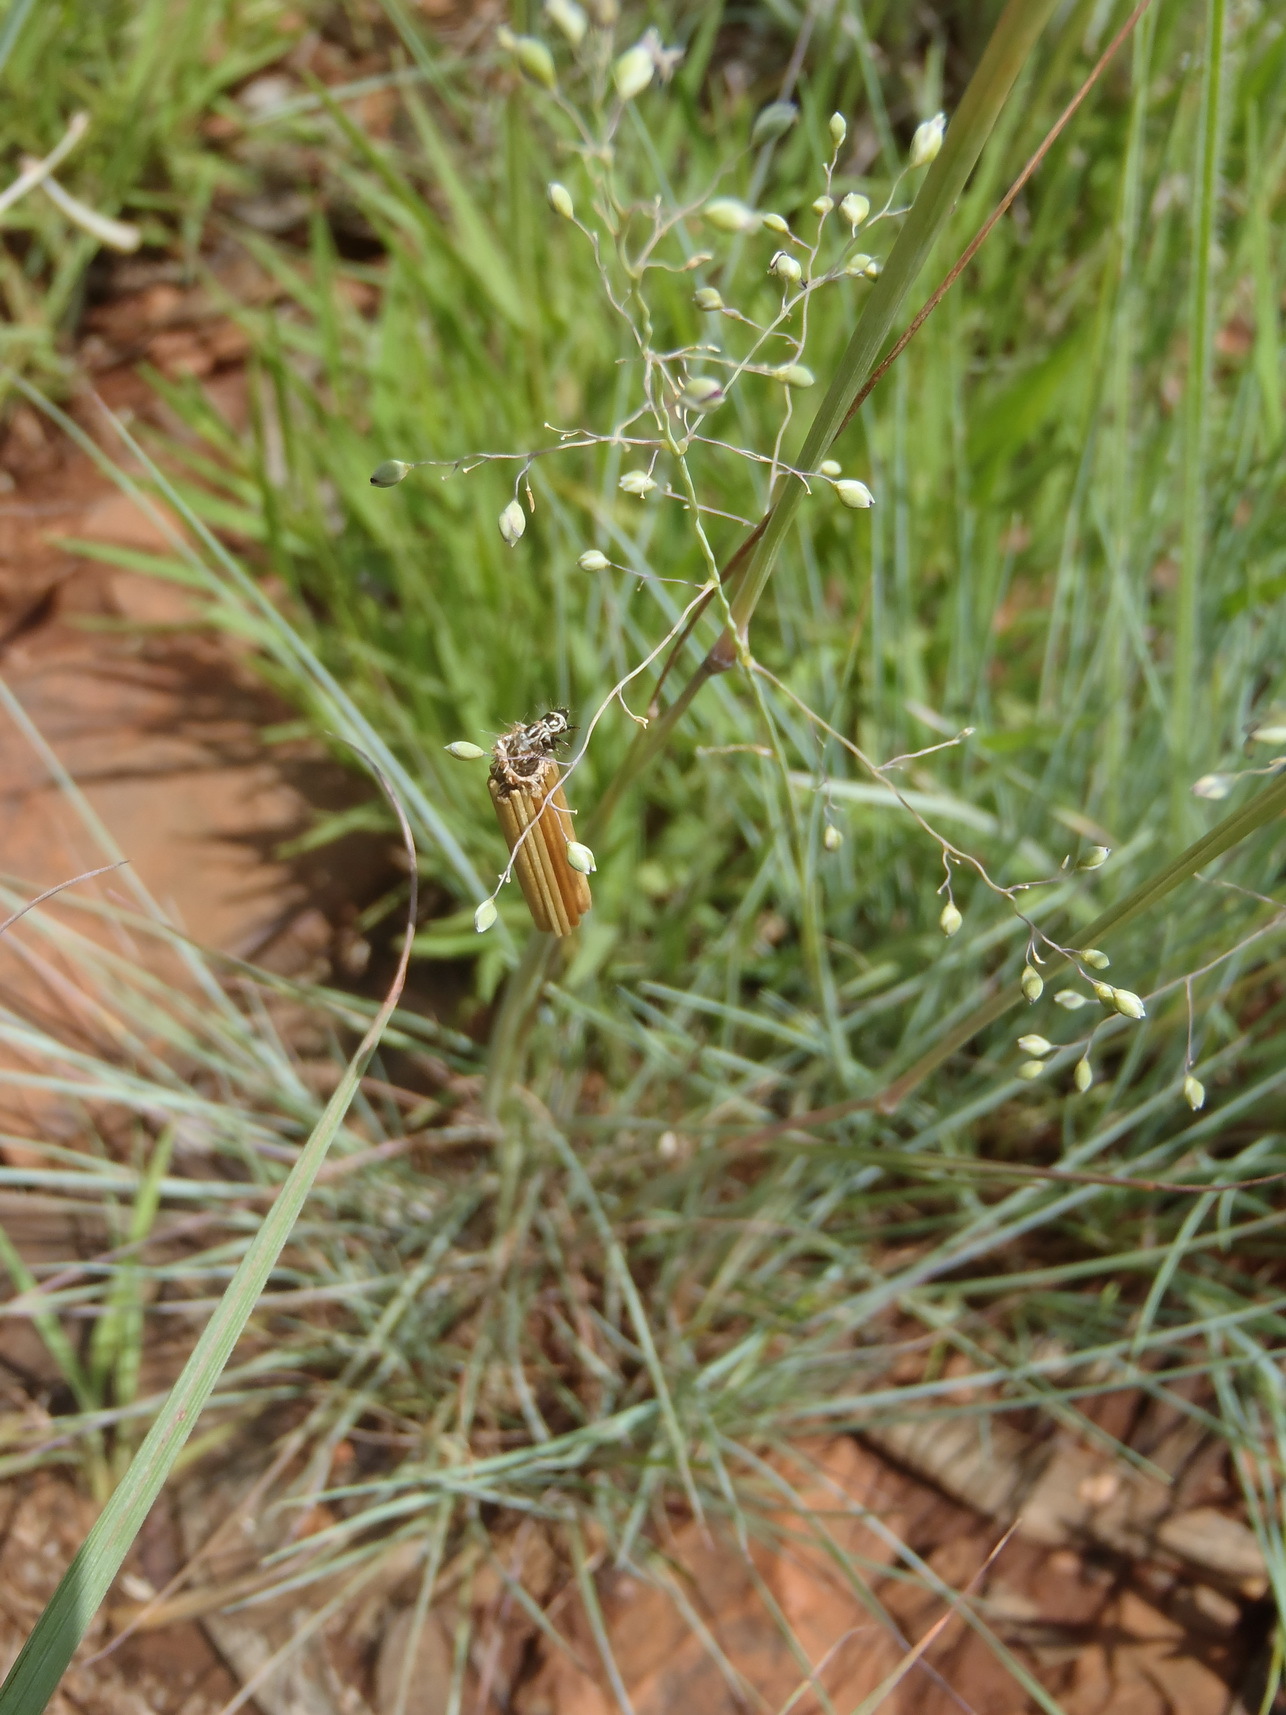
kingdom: Plantae
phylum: Tracheophyta
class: Liliopsida
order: Poales
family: Poaceae
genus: Trichanthecium
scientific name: Trichanthecium natalense
